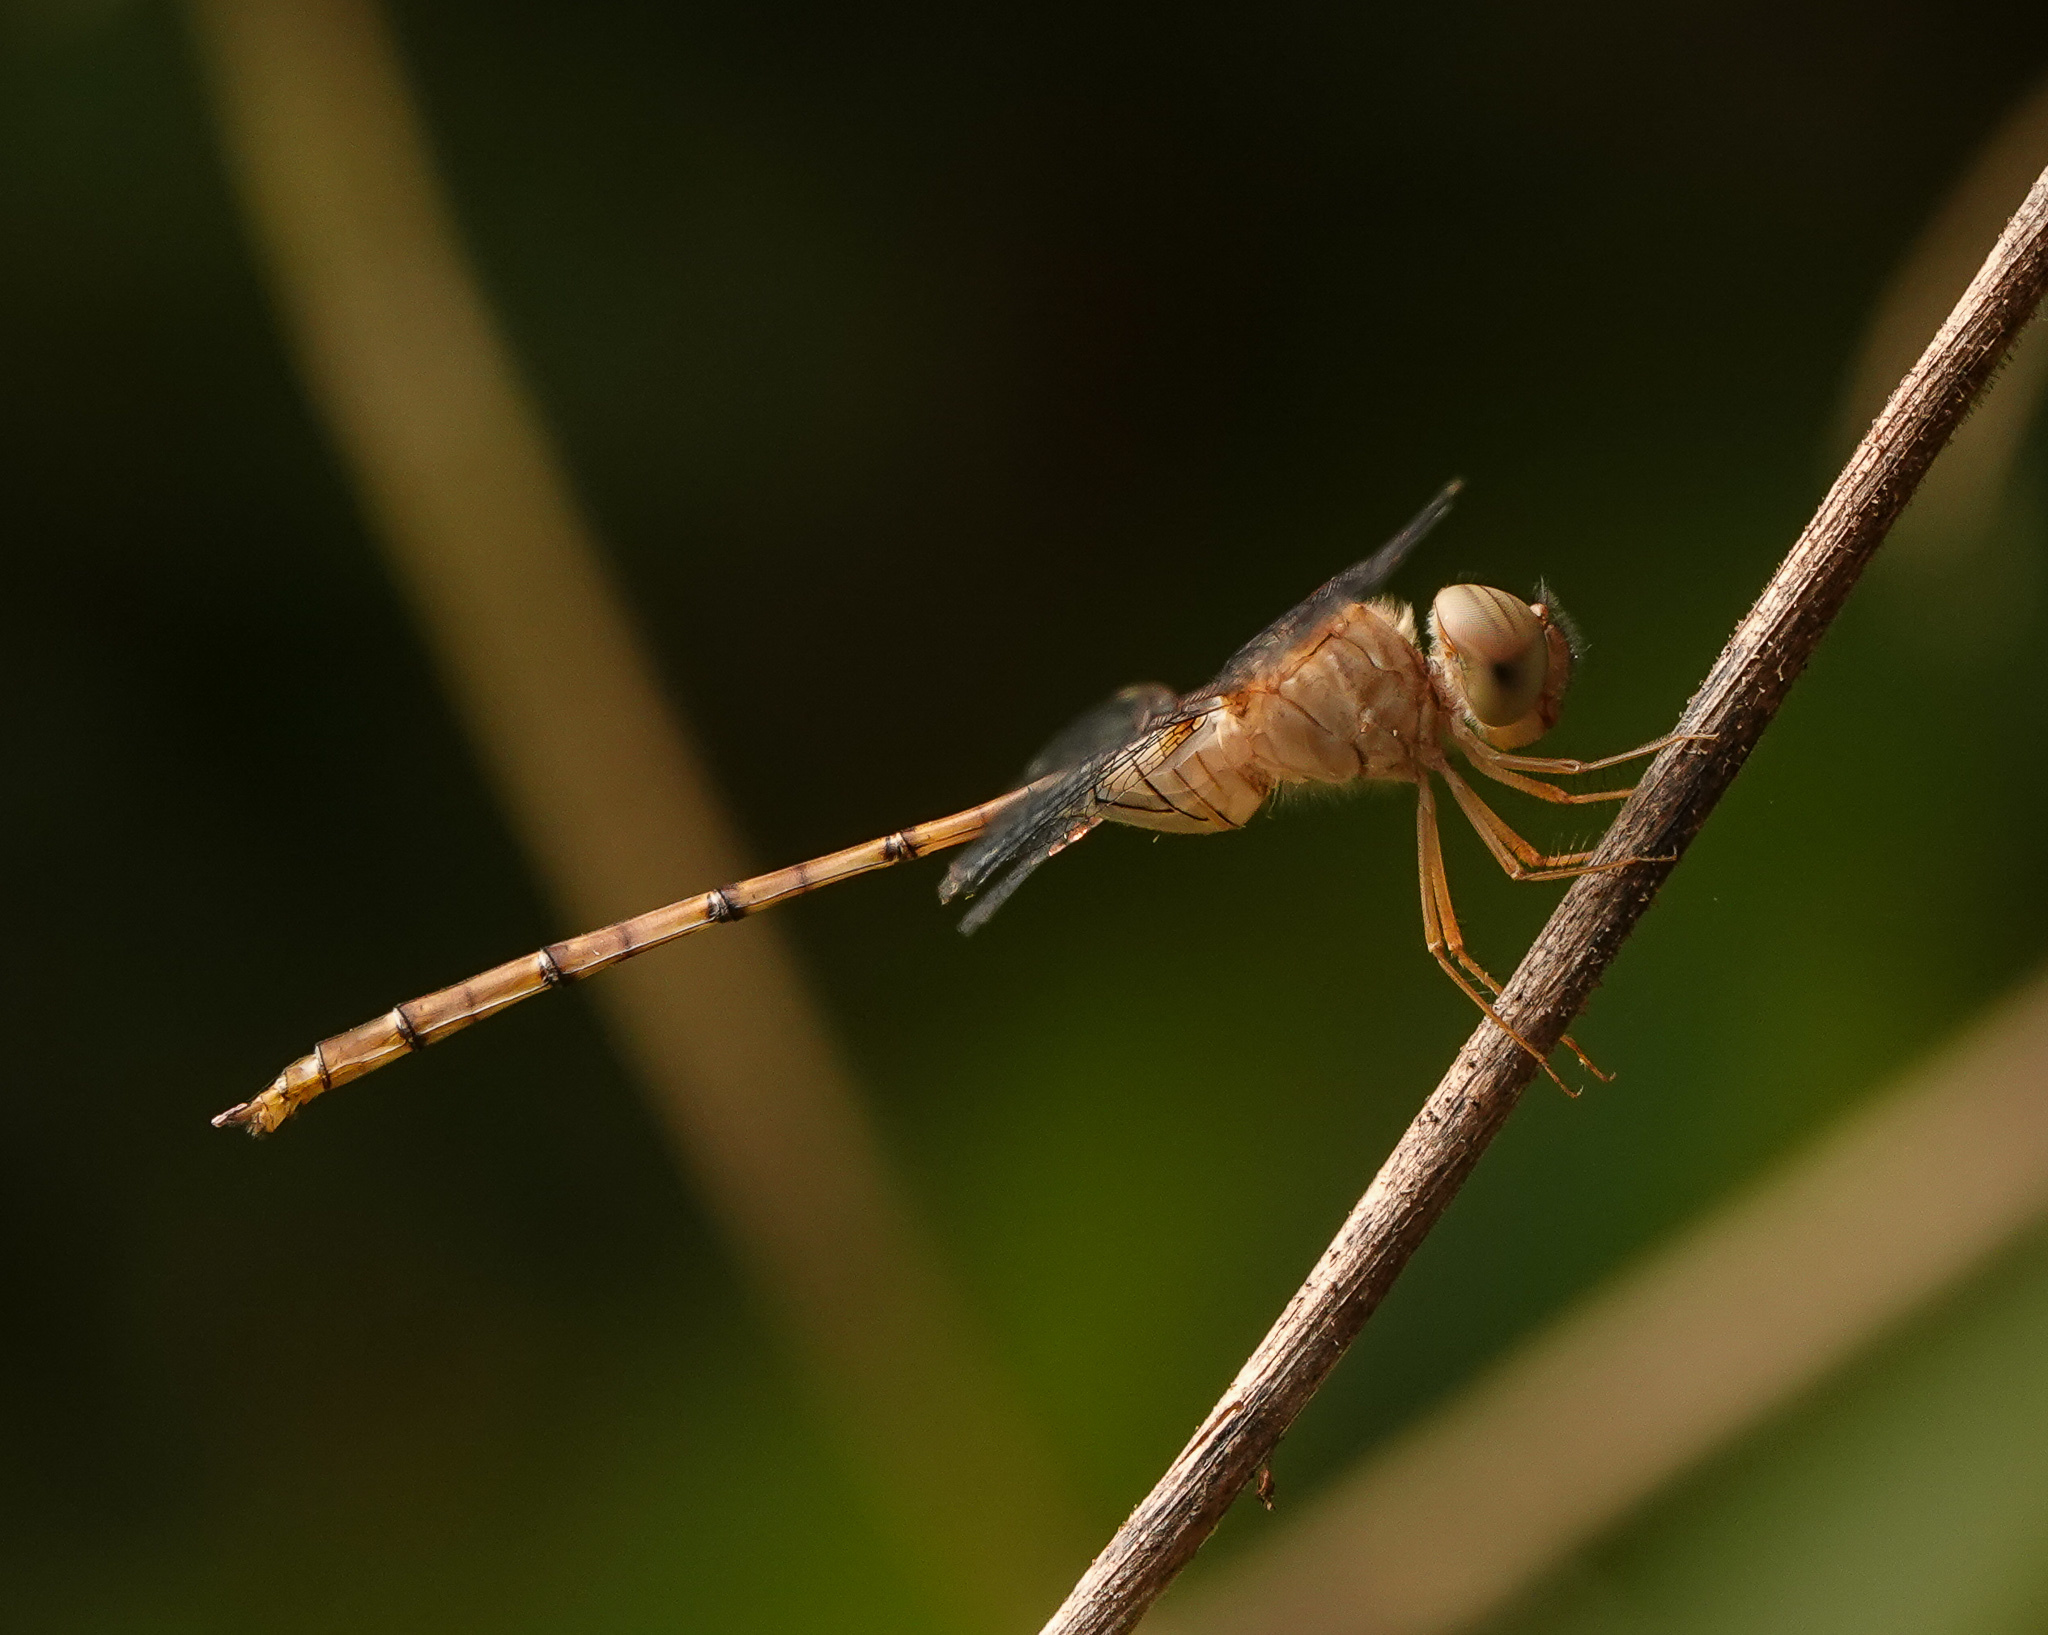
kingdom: Animalia
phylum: Arthropoda
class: Insecta
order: Odonata
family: Libellulidae
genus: Zyxomma
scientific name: Zyxomma petiolatum
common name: Dingy dusk-darter
